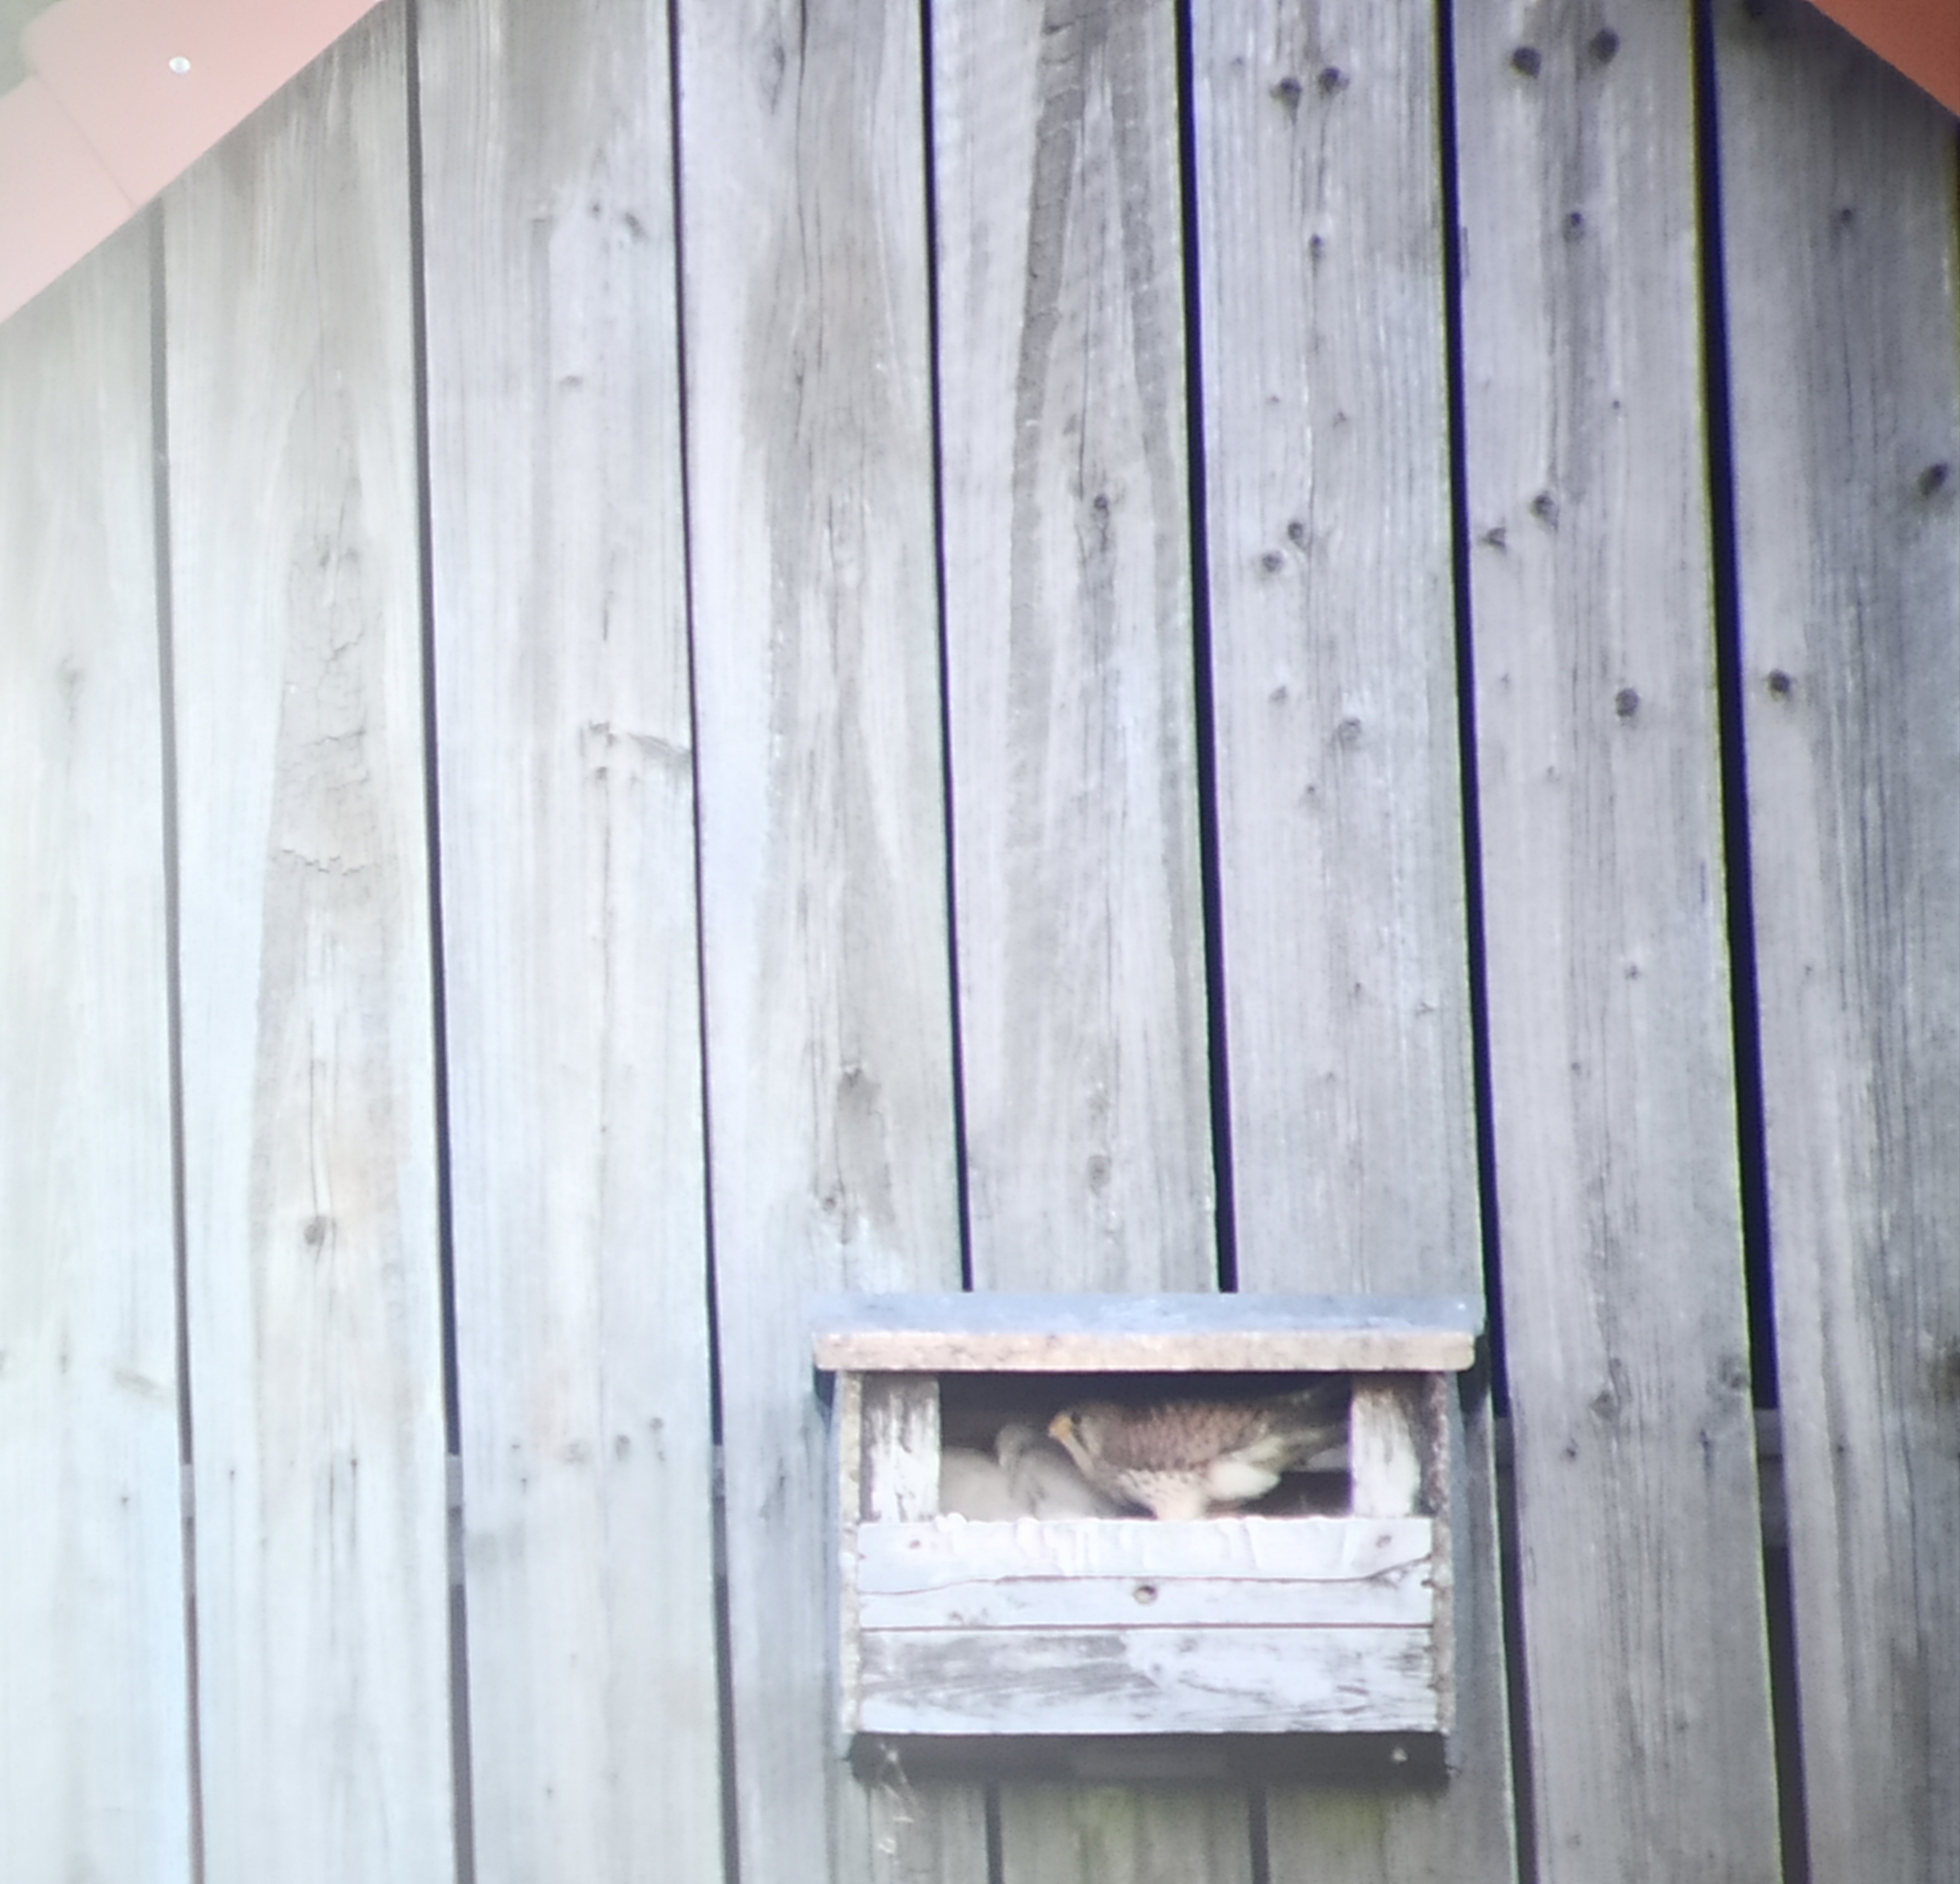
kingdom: Animalia
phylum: Chordata
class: Aves
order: Falconiformes
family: Falconidae
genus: Falco
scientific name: Falco tinnunculus
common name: Common kestrel
